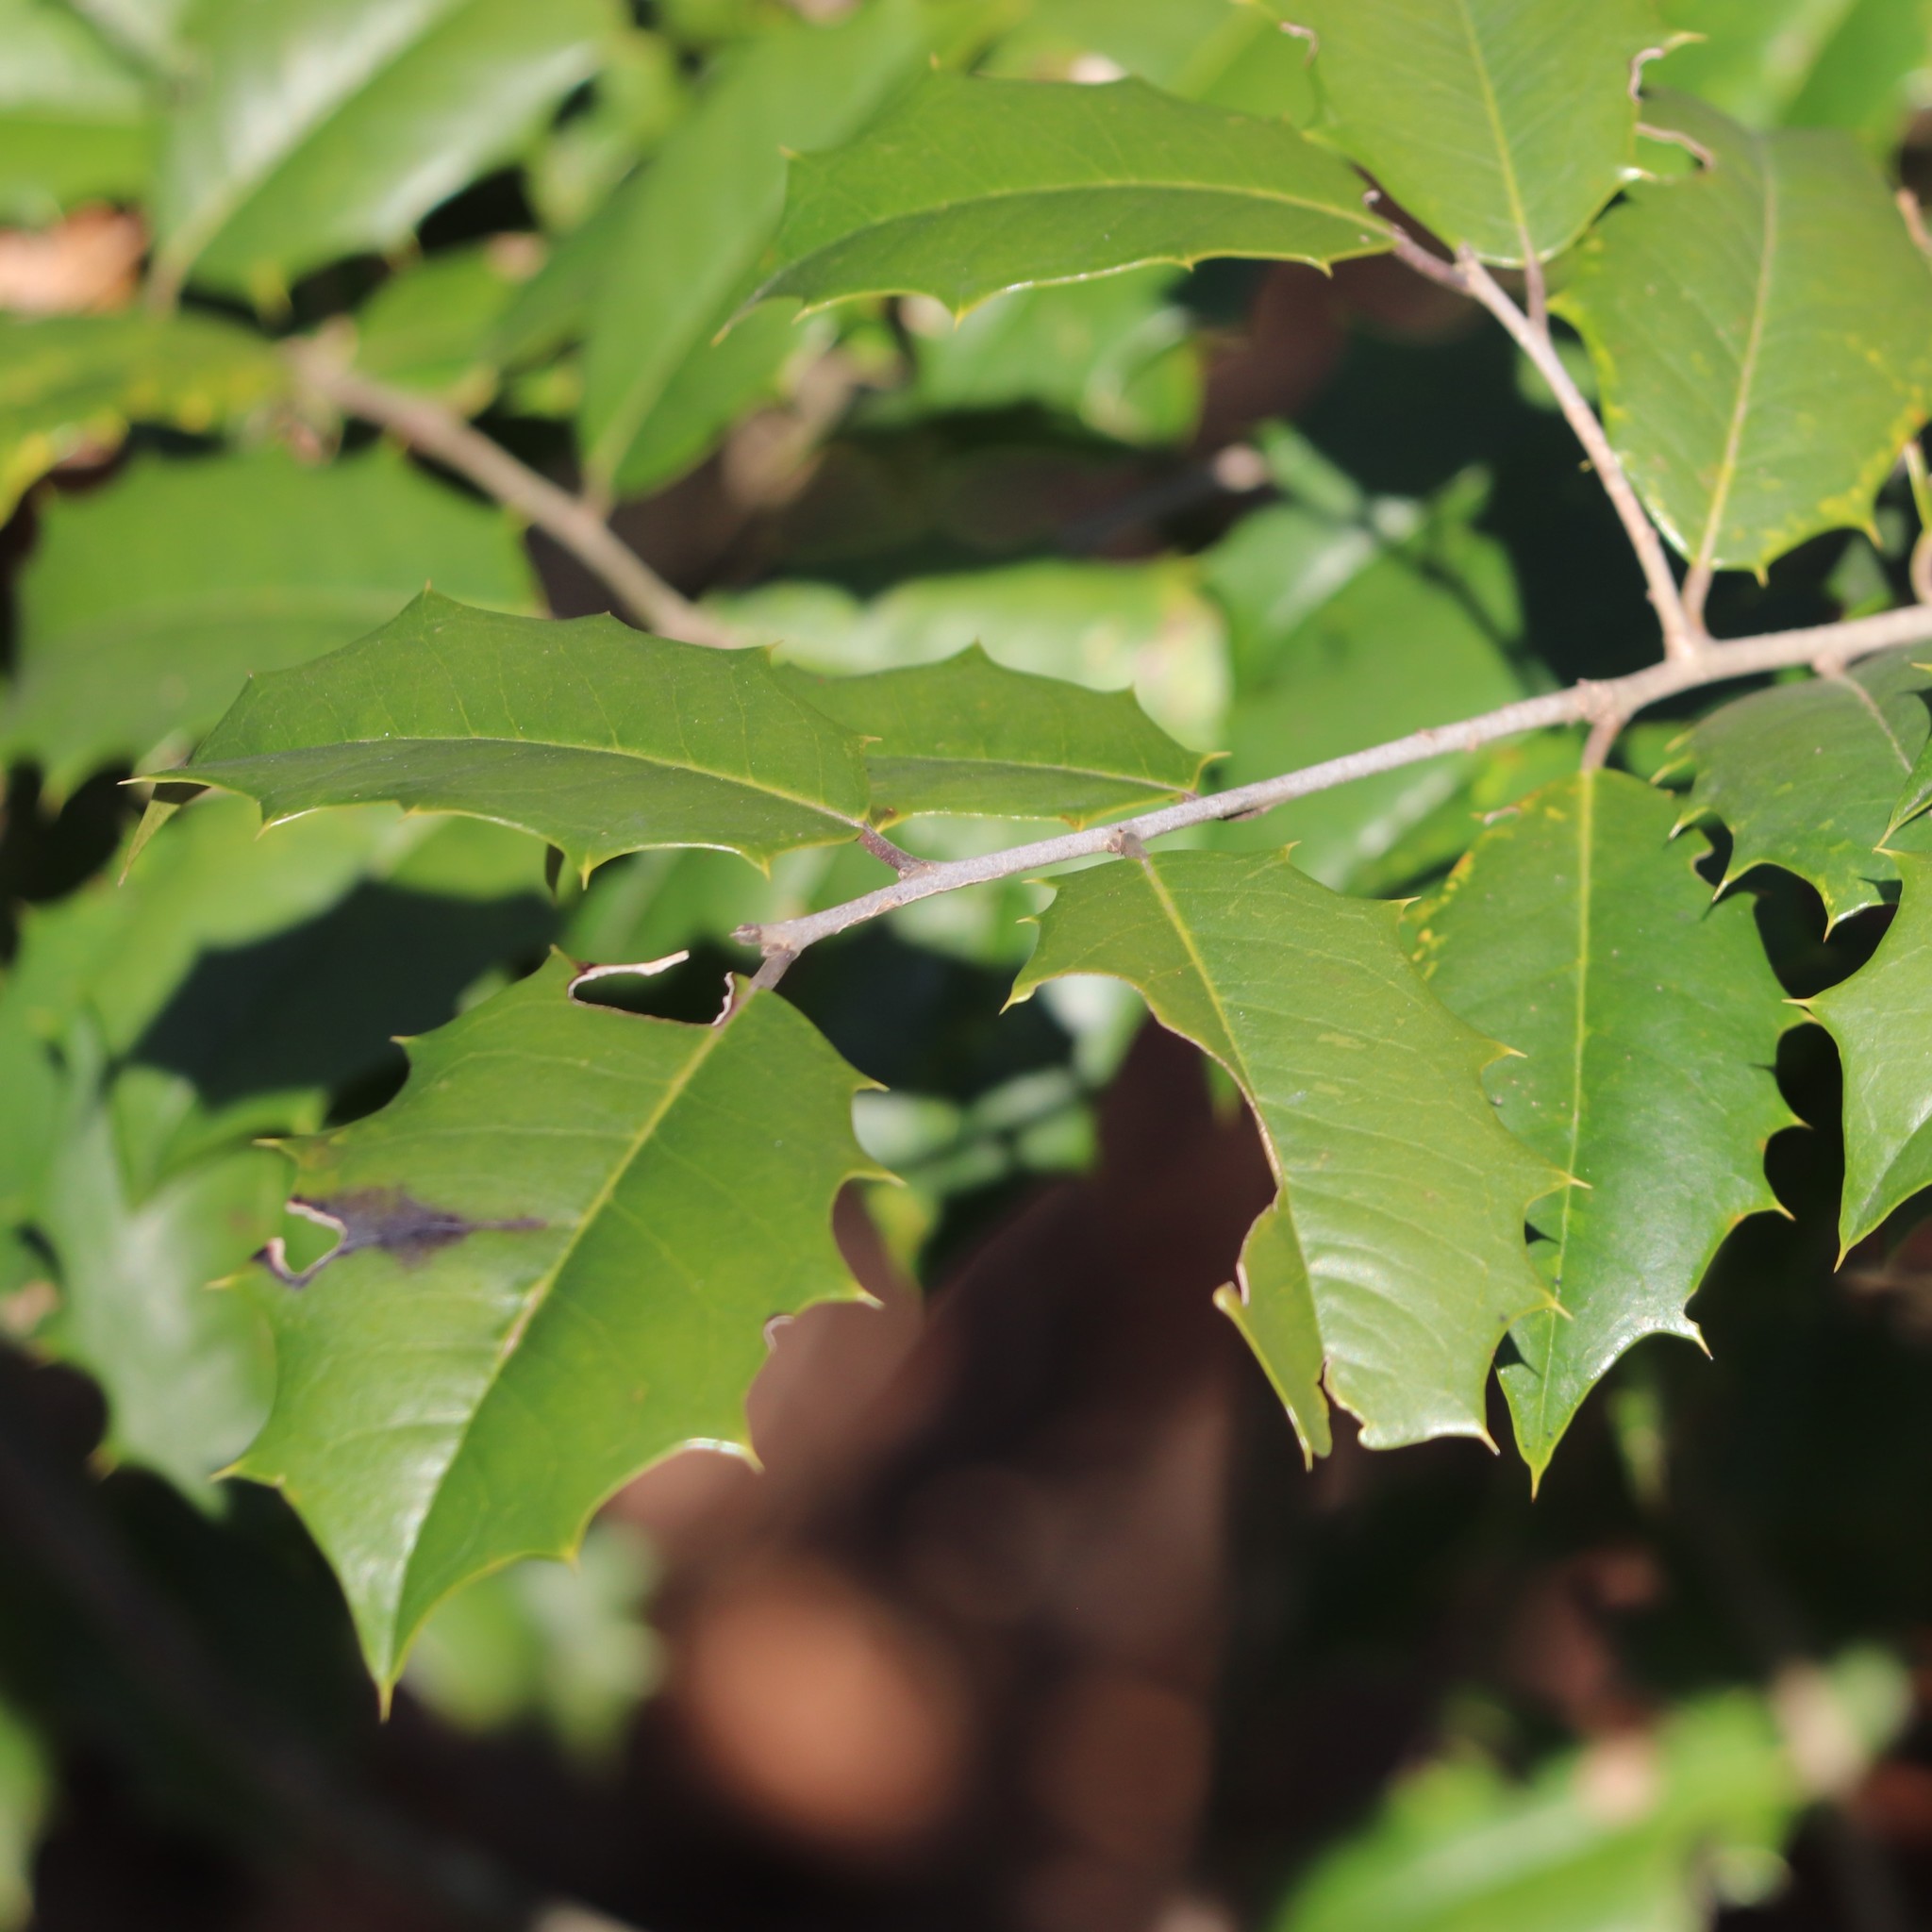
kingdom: Plantae
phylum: Tracheophyta
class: Magnoliopsida
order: Aquifoliales
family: Aquifoliaceae
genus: Ilex
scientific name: Ilex opaca
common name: American holly
